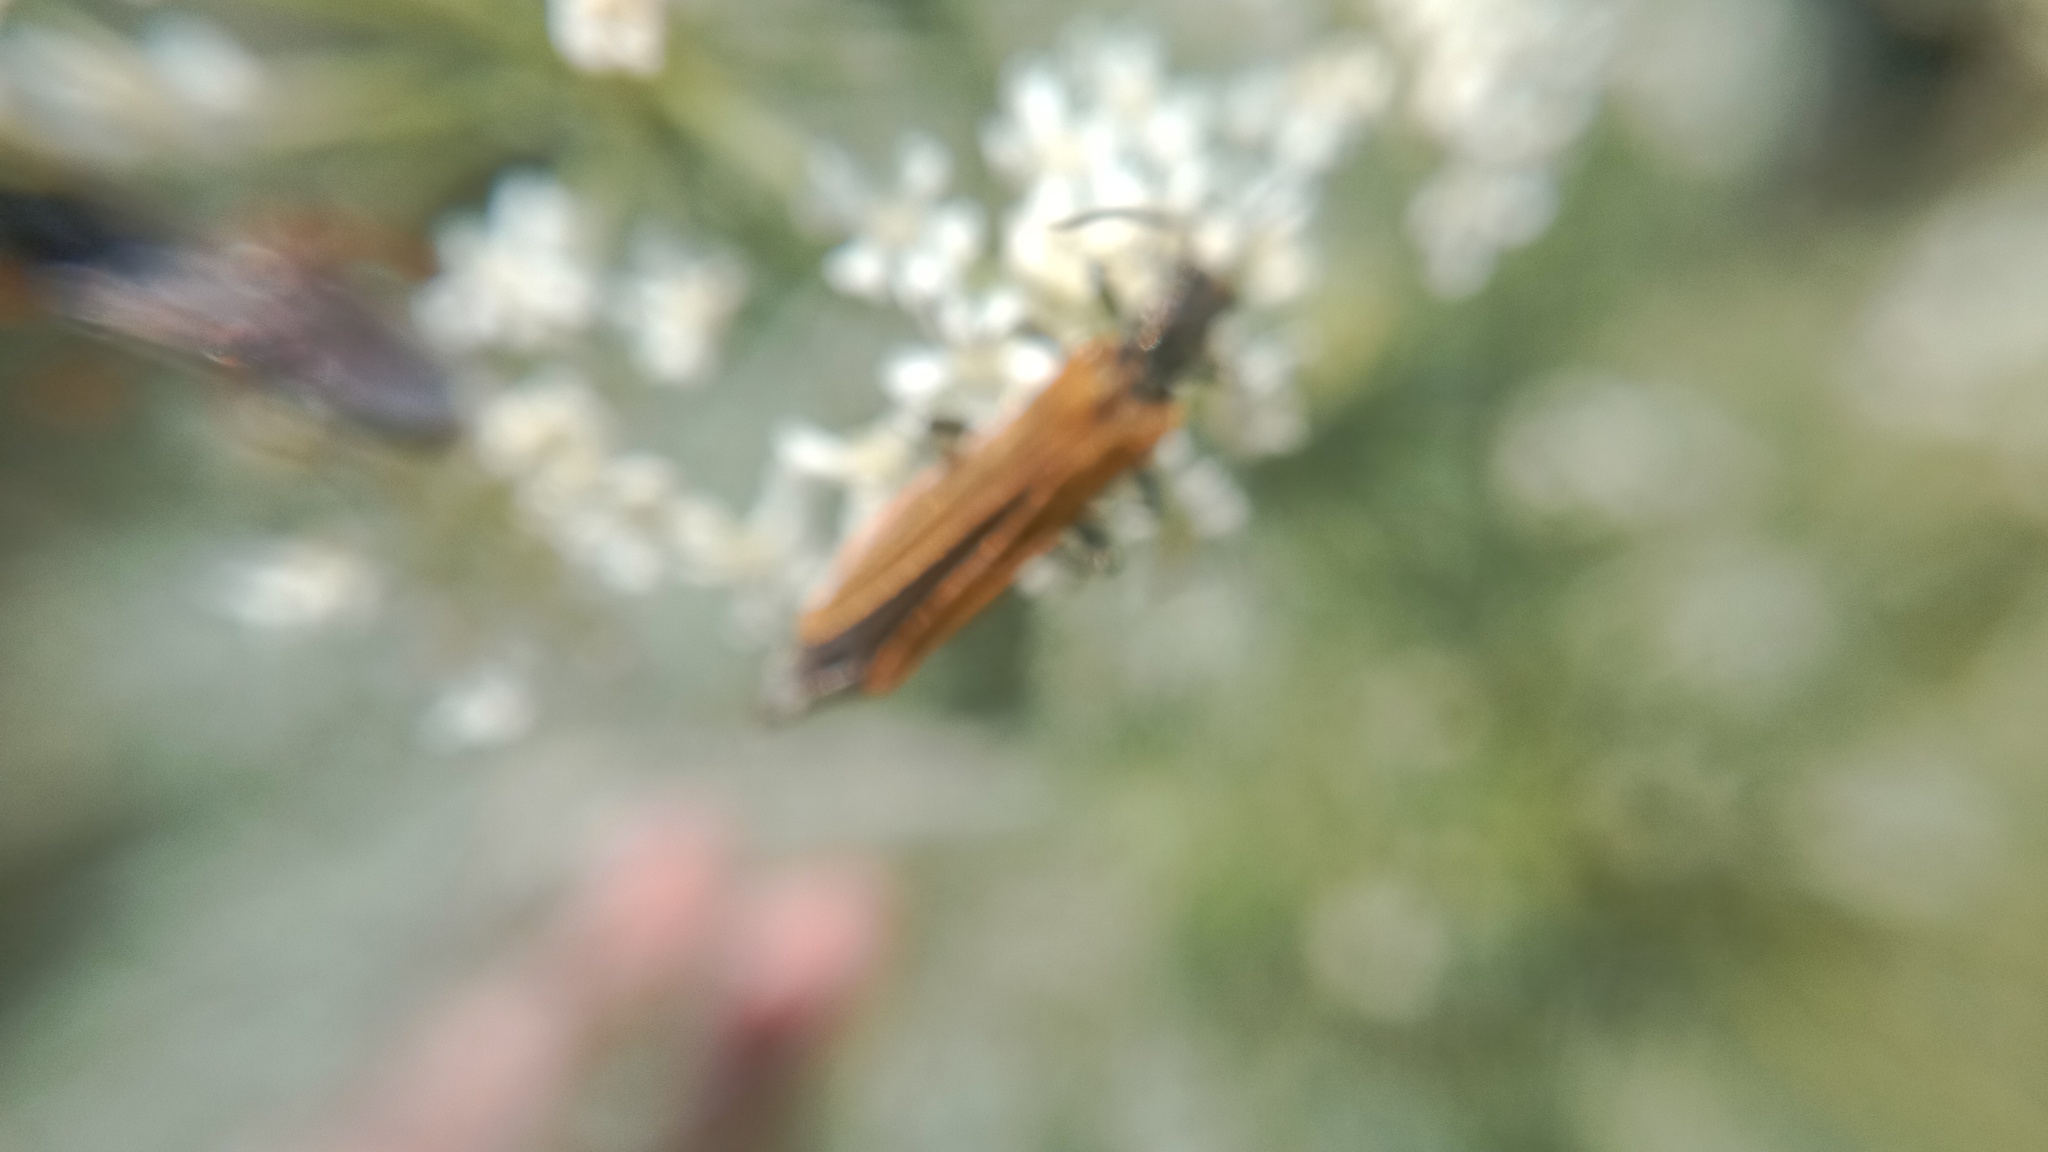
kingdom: Animalia
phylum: Arthropoda
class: Insecta
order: Coleoptera
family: Oedemeridae
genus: Oedemera
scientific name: Oedemera femorata
